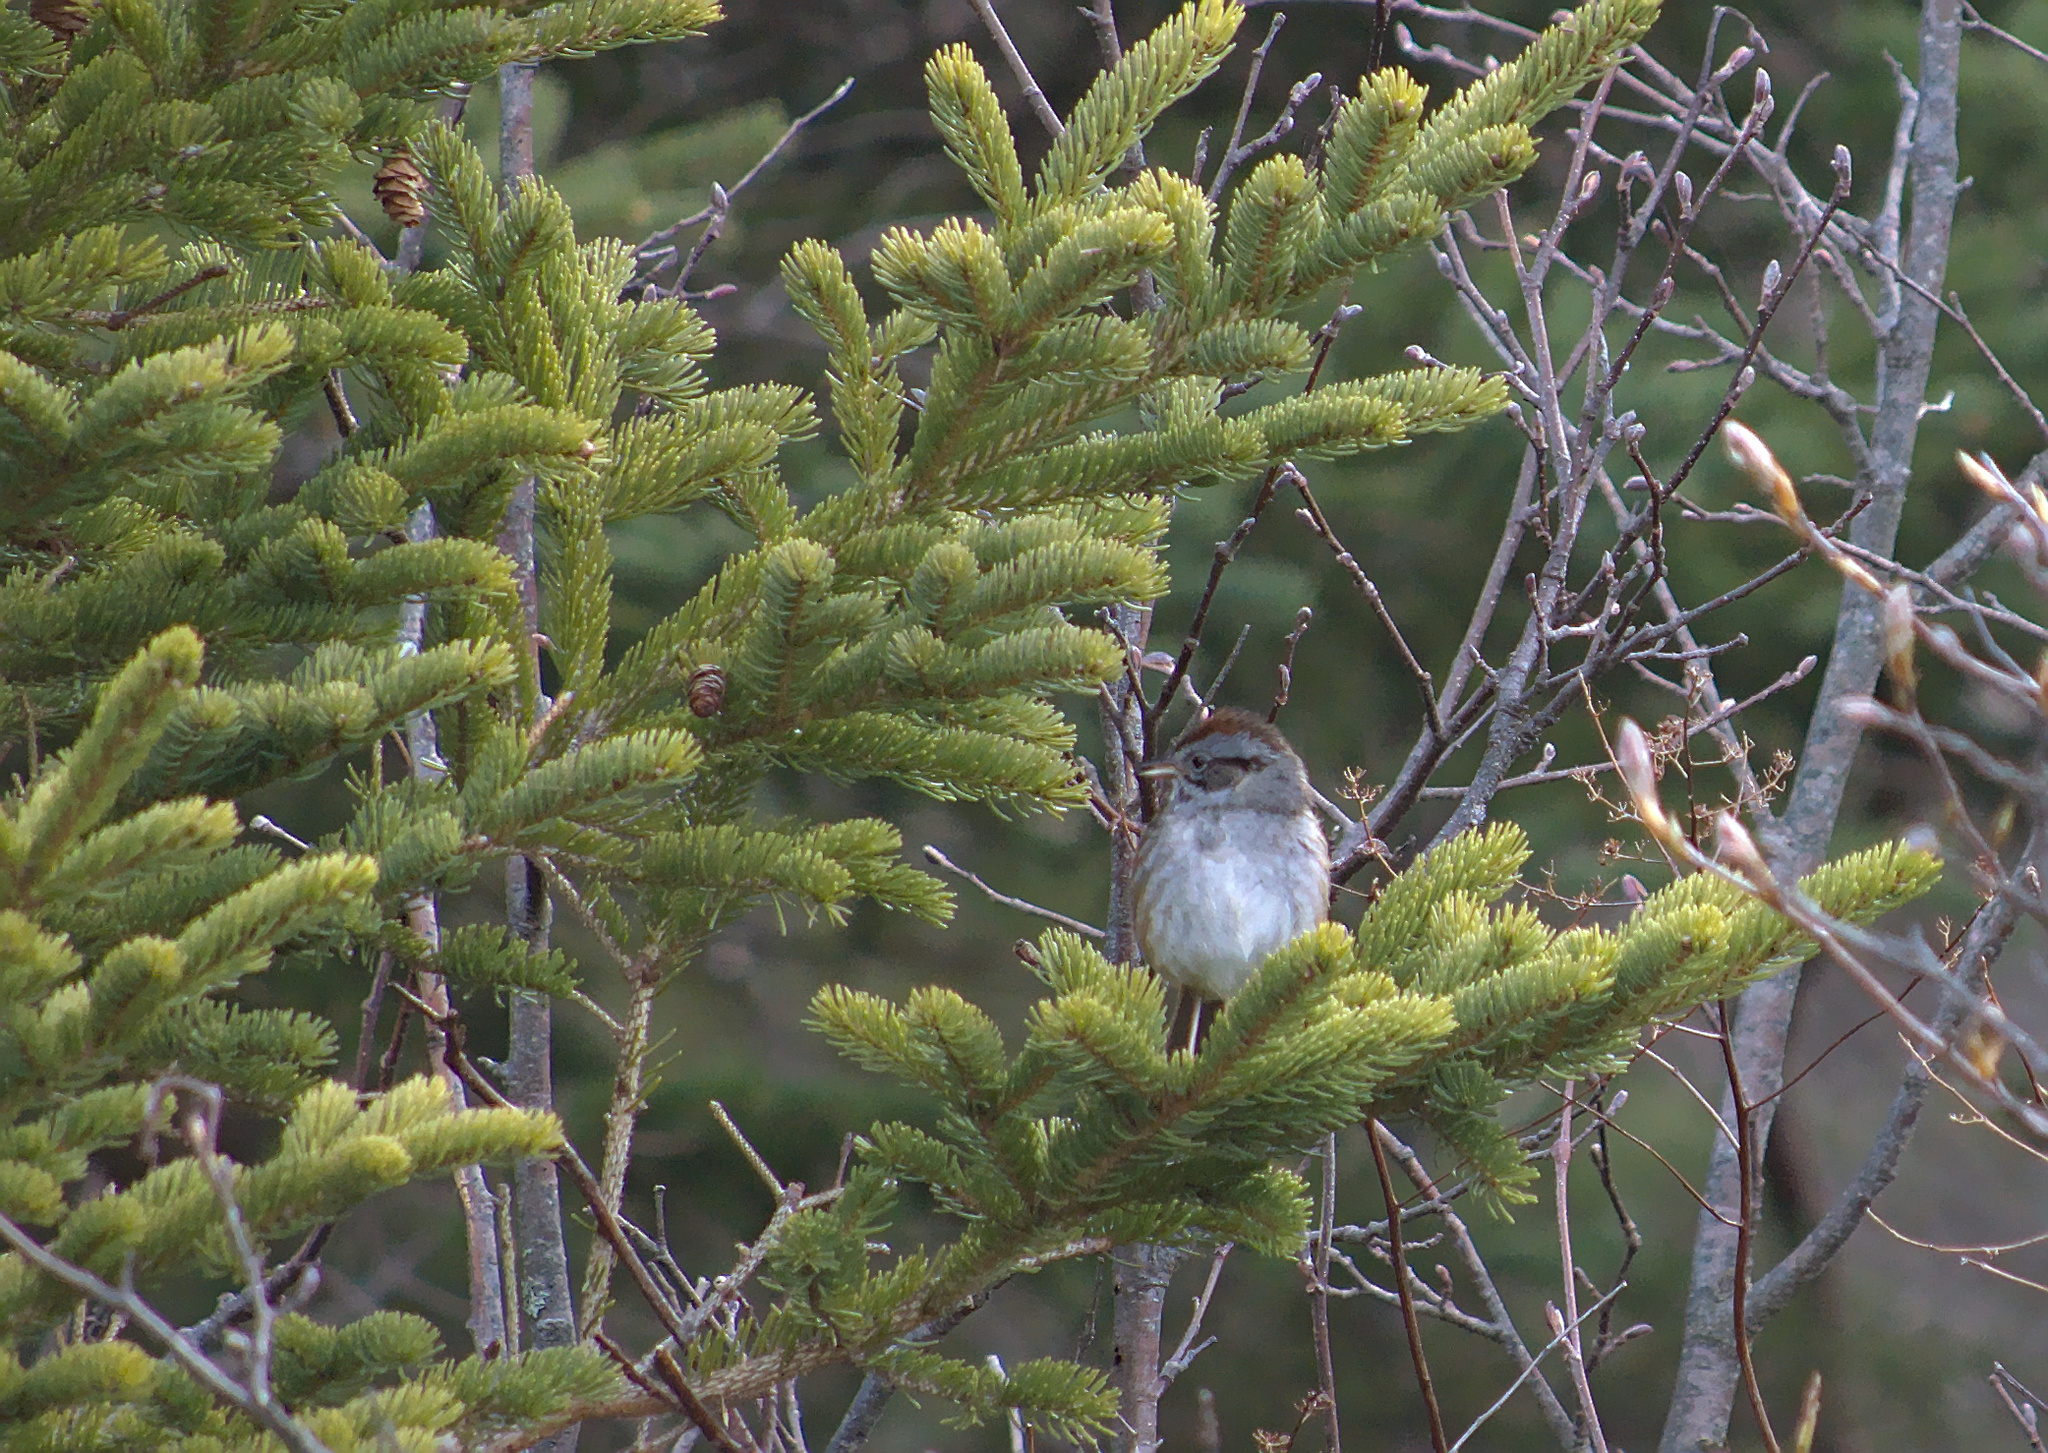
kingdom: Animalia
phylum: Chordata
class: Aves
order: Passeriformes
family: Passerellidae
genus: Melospiza
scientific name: Melospiza georgiana
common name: Swamp sparrow
